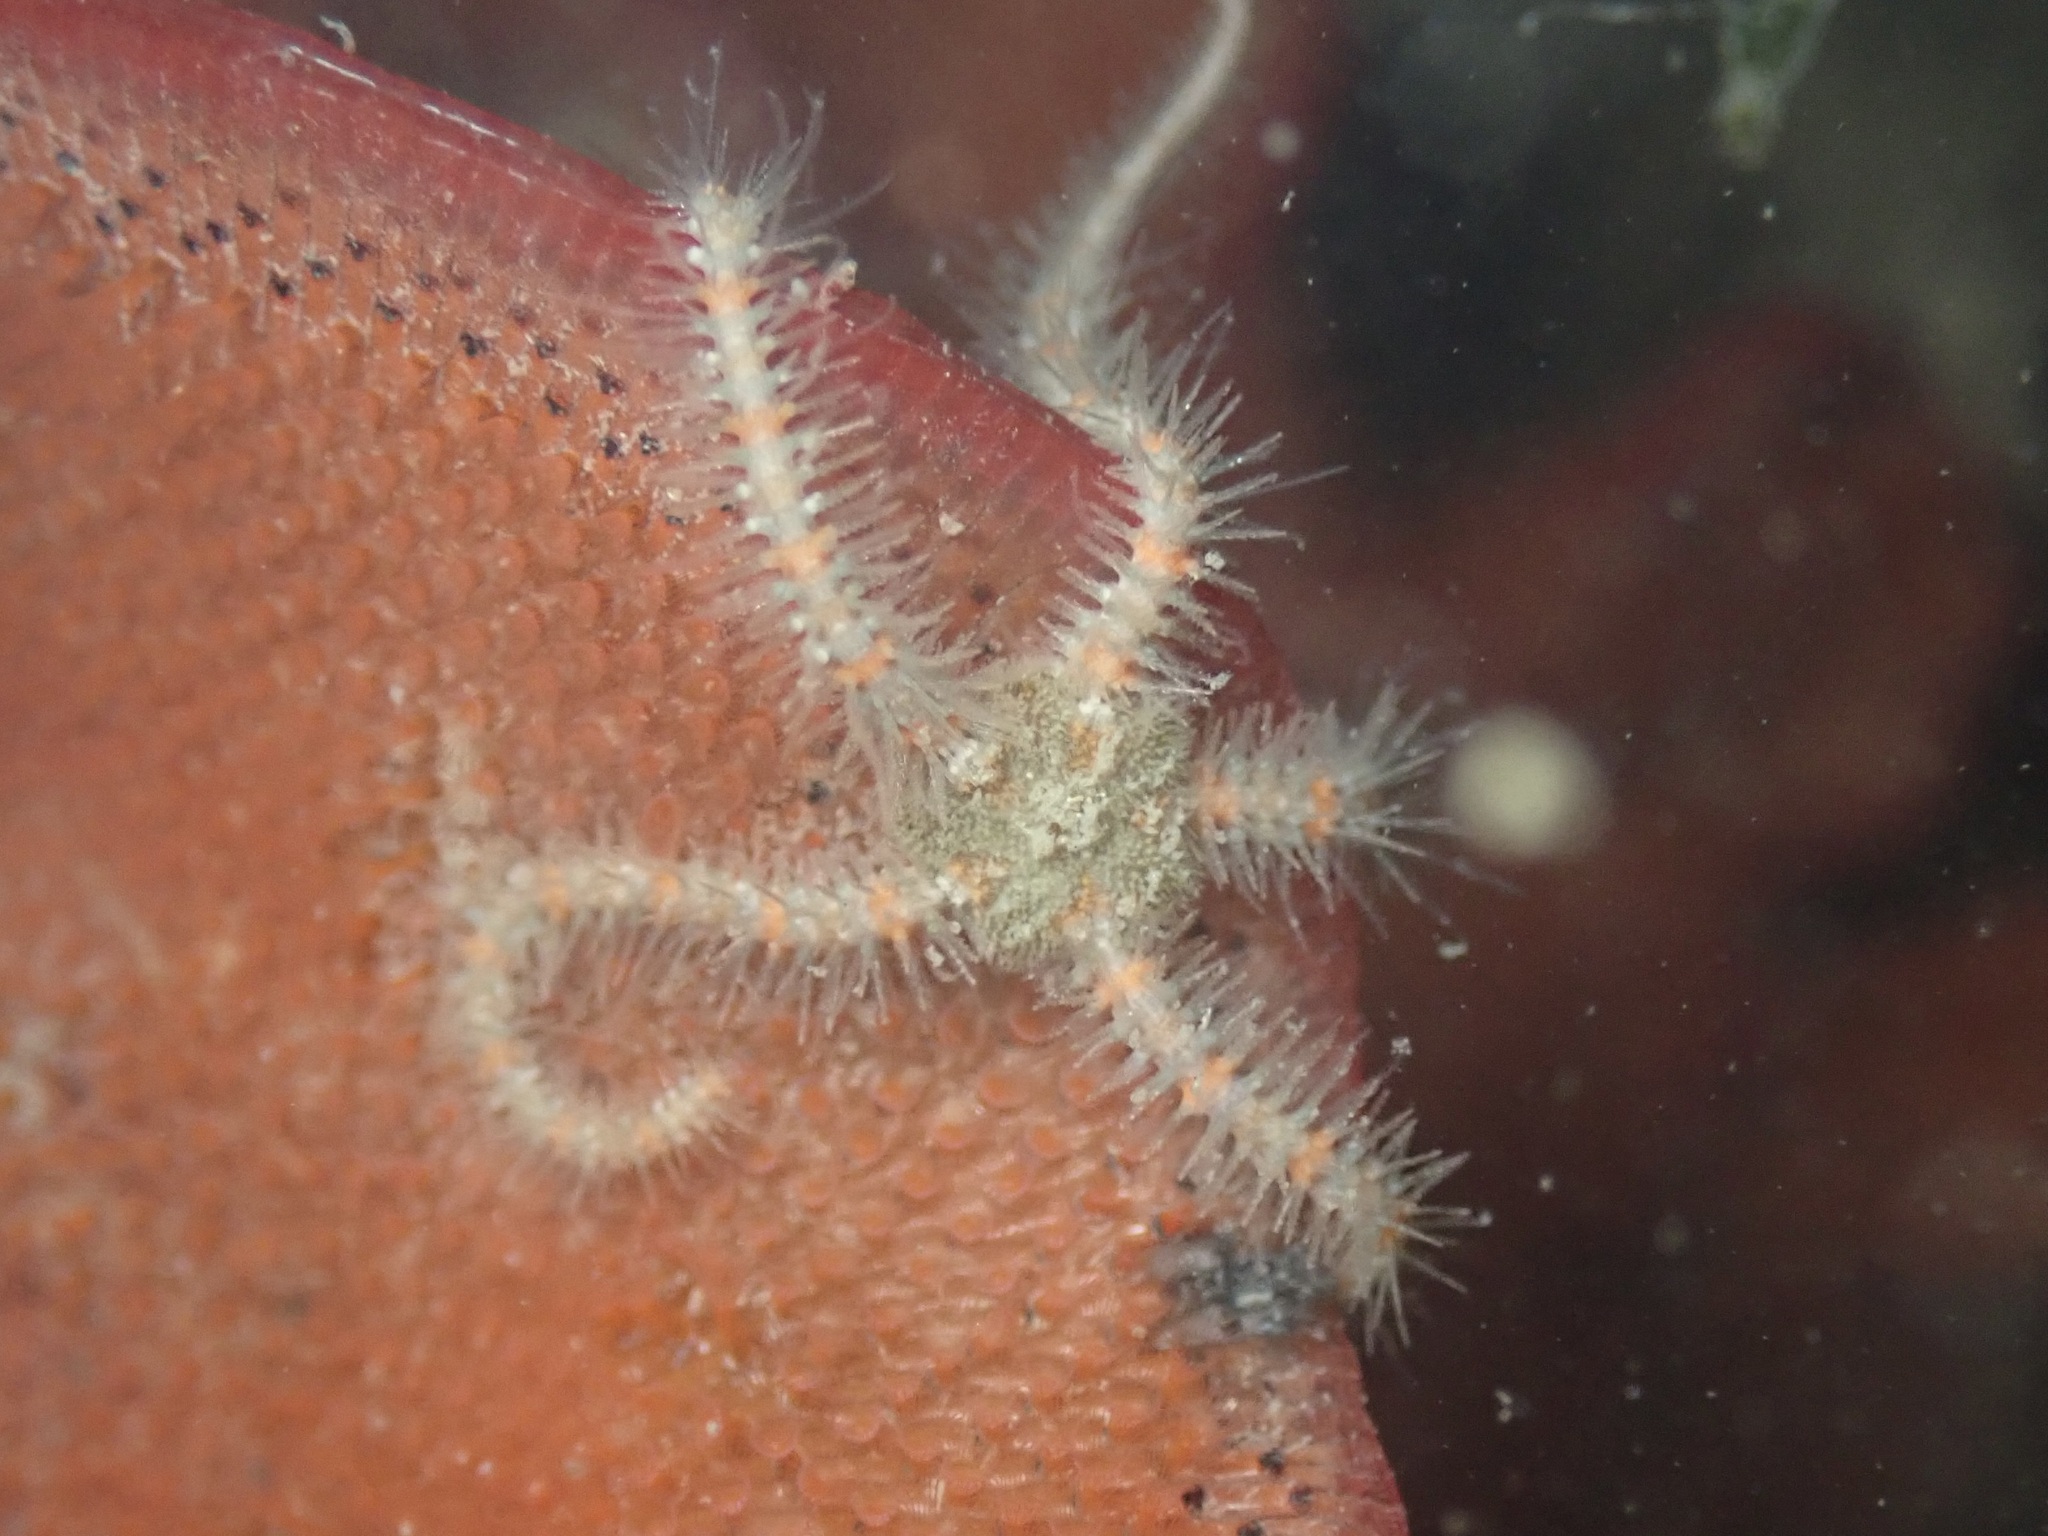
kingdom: Animalia
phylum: Echinodermata
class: Ophiuroidea
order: Amphilepidida
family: Ophiotrichidae
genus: Ophiothrix
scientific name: Ophiothrix spiculata
